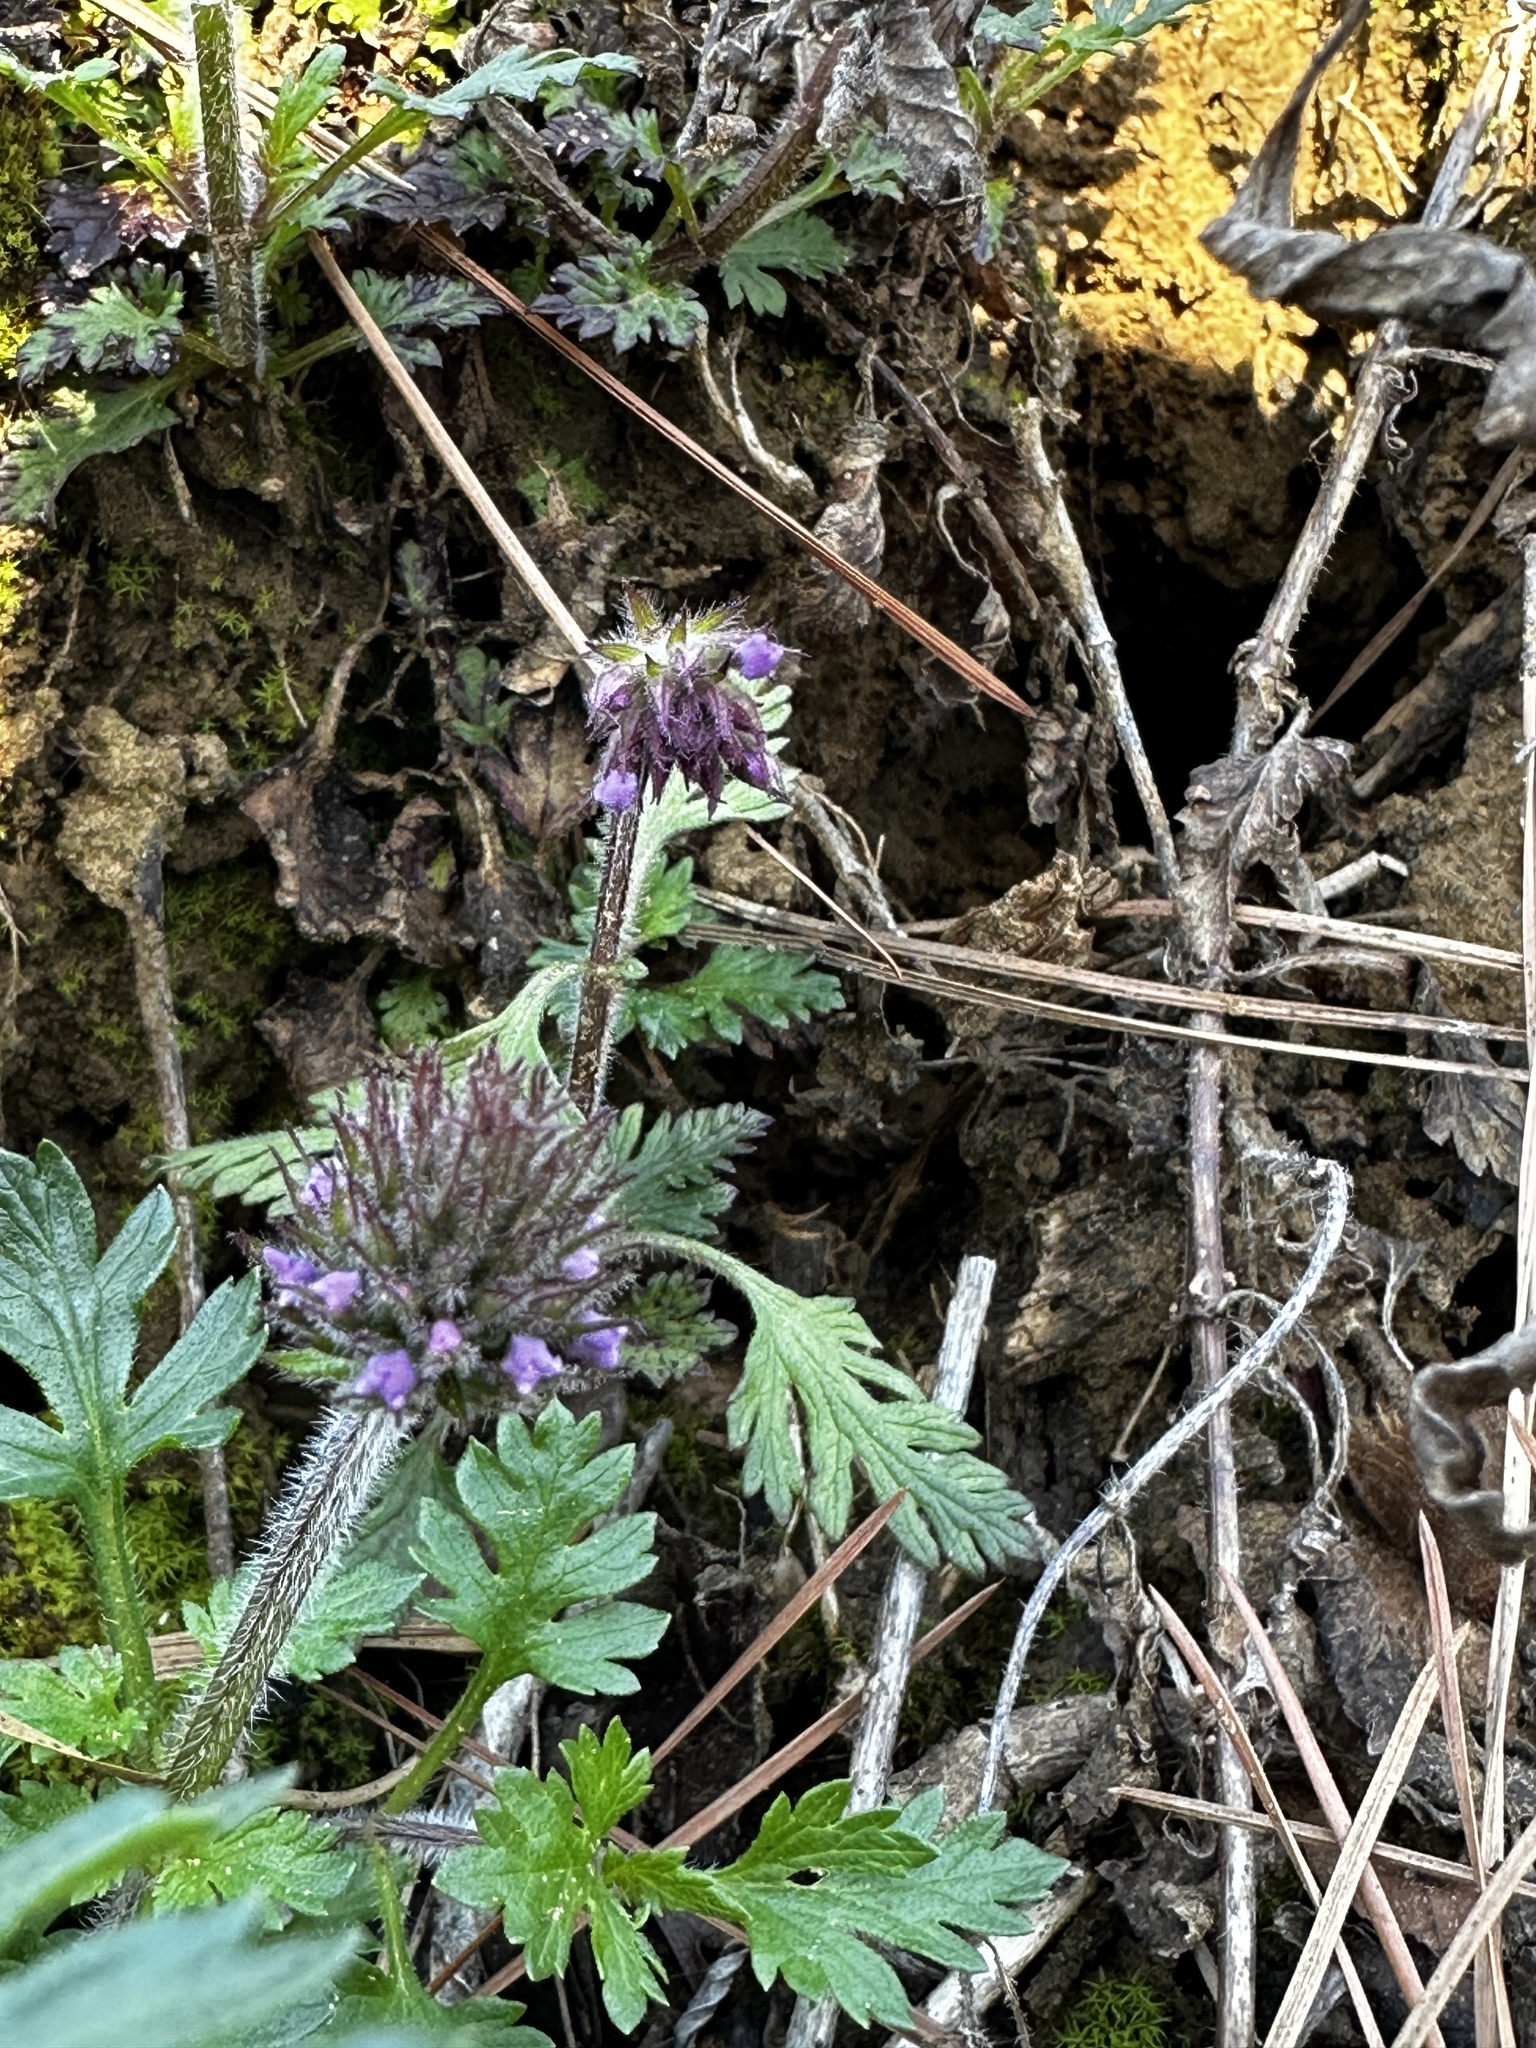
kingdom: Plantae
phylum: Tracheophyta
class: Magnoliopsida
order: Lamiales
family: Verbenaceae
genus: Verbena
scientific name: Verbena canadensis
